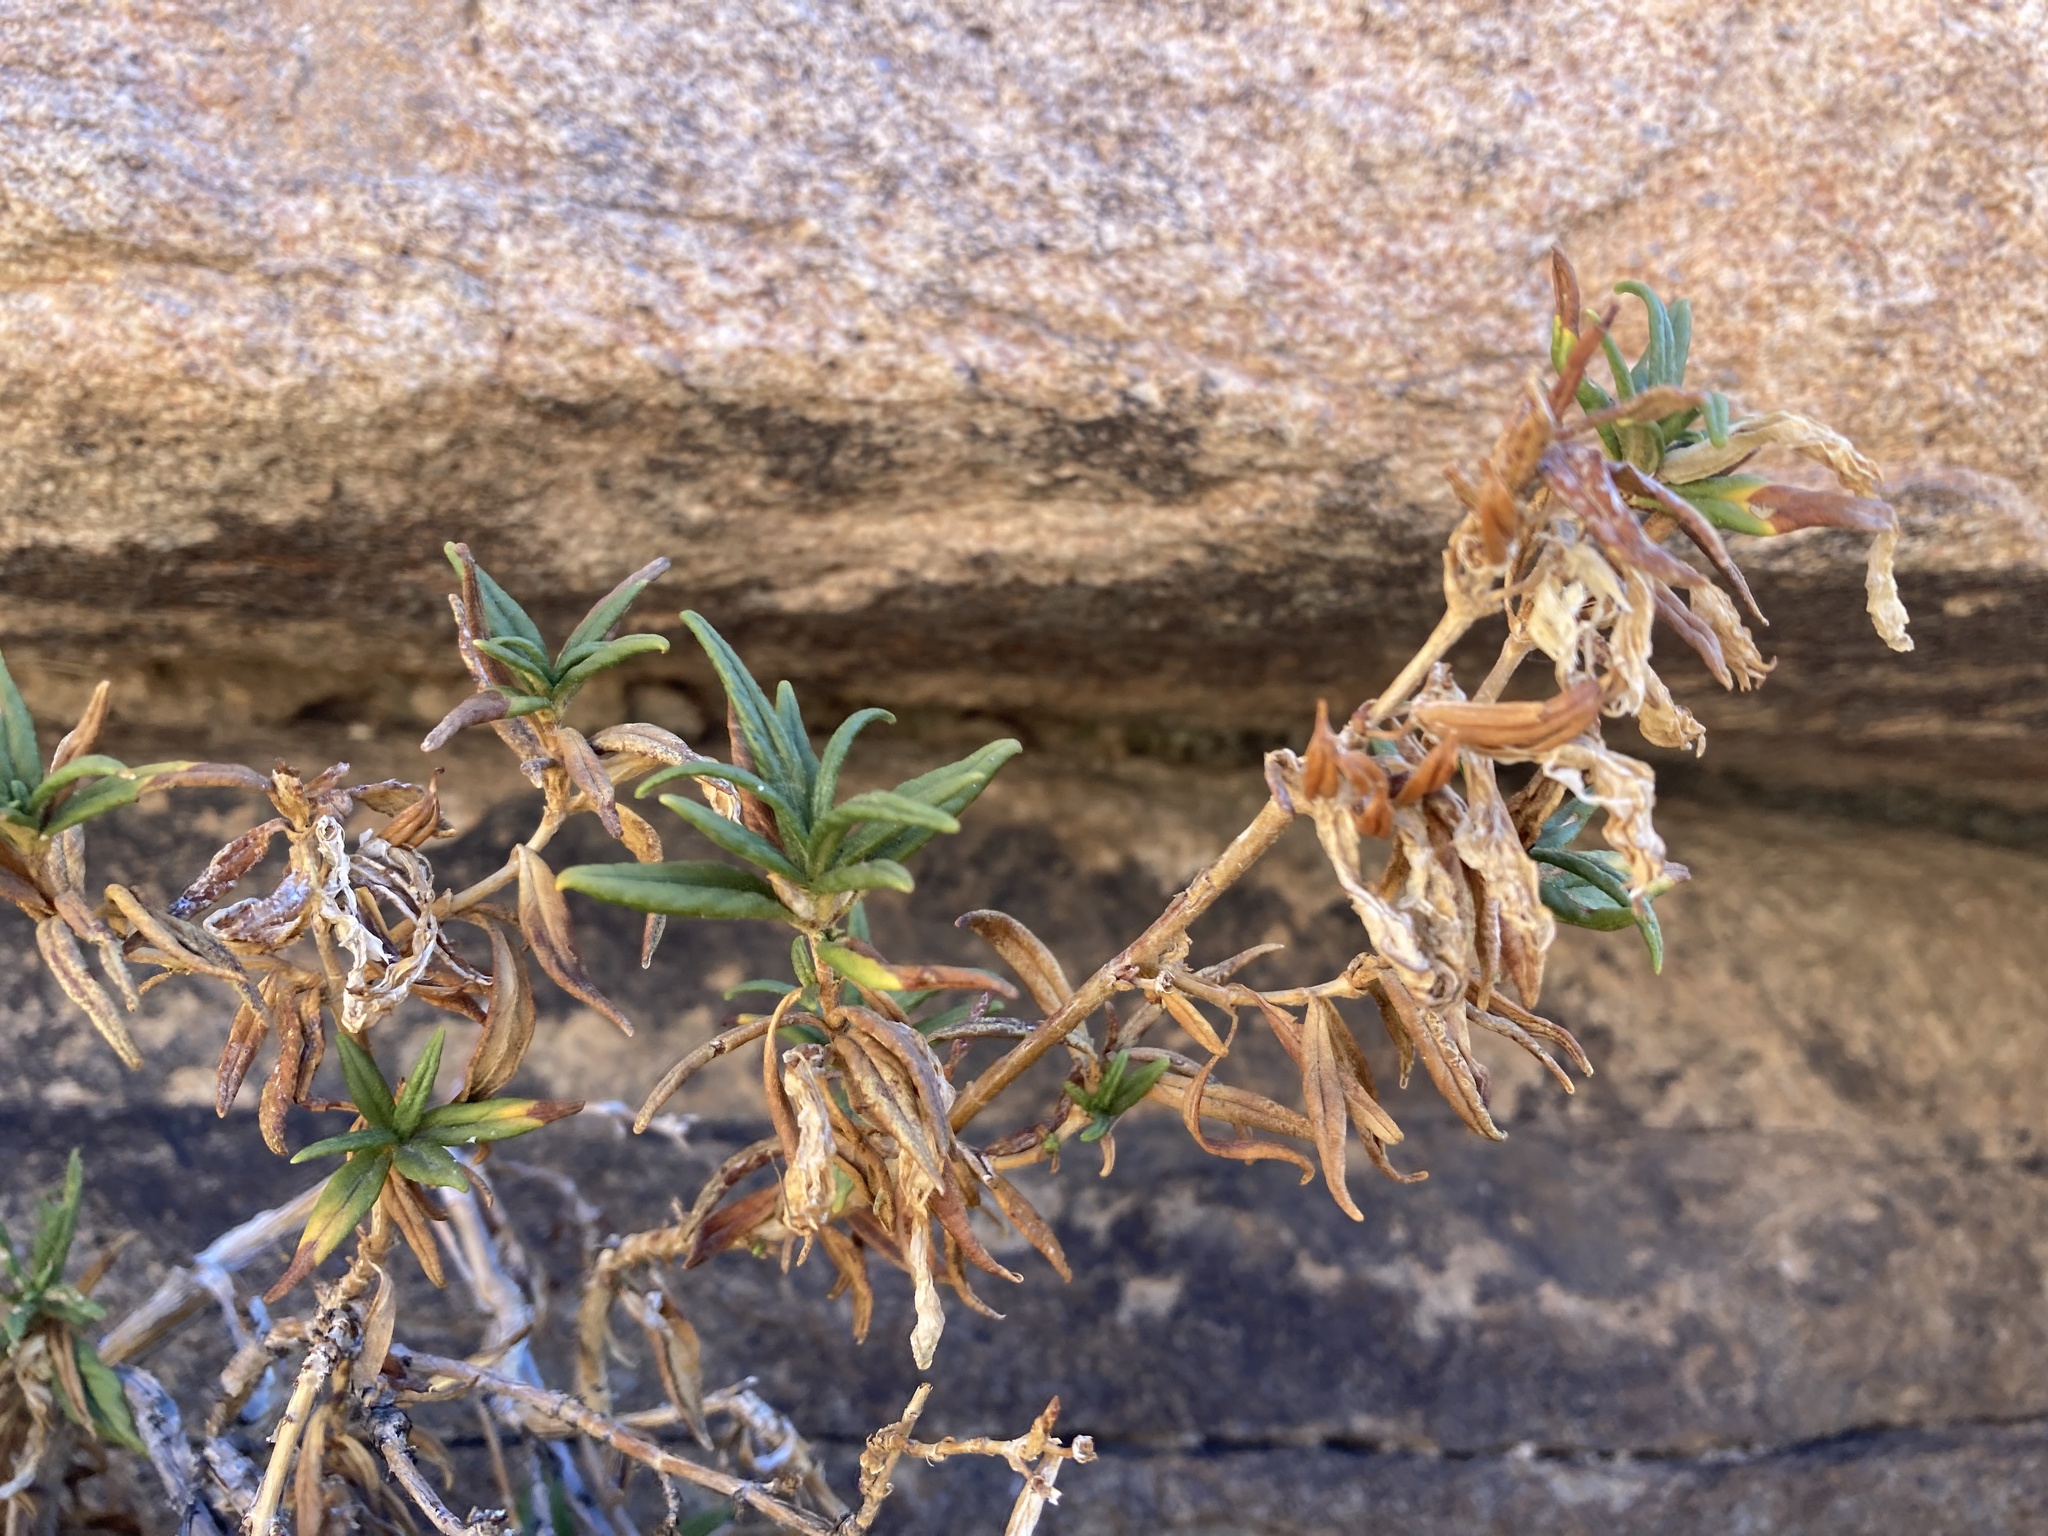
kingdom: Plantae
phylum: Tracheophyta
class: Magnoliopsida
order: Lamiales
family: Phrymaceae
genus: Diplacus
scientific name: Diplacus calycinus
